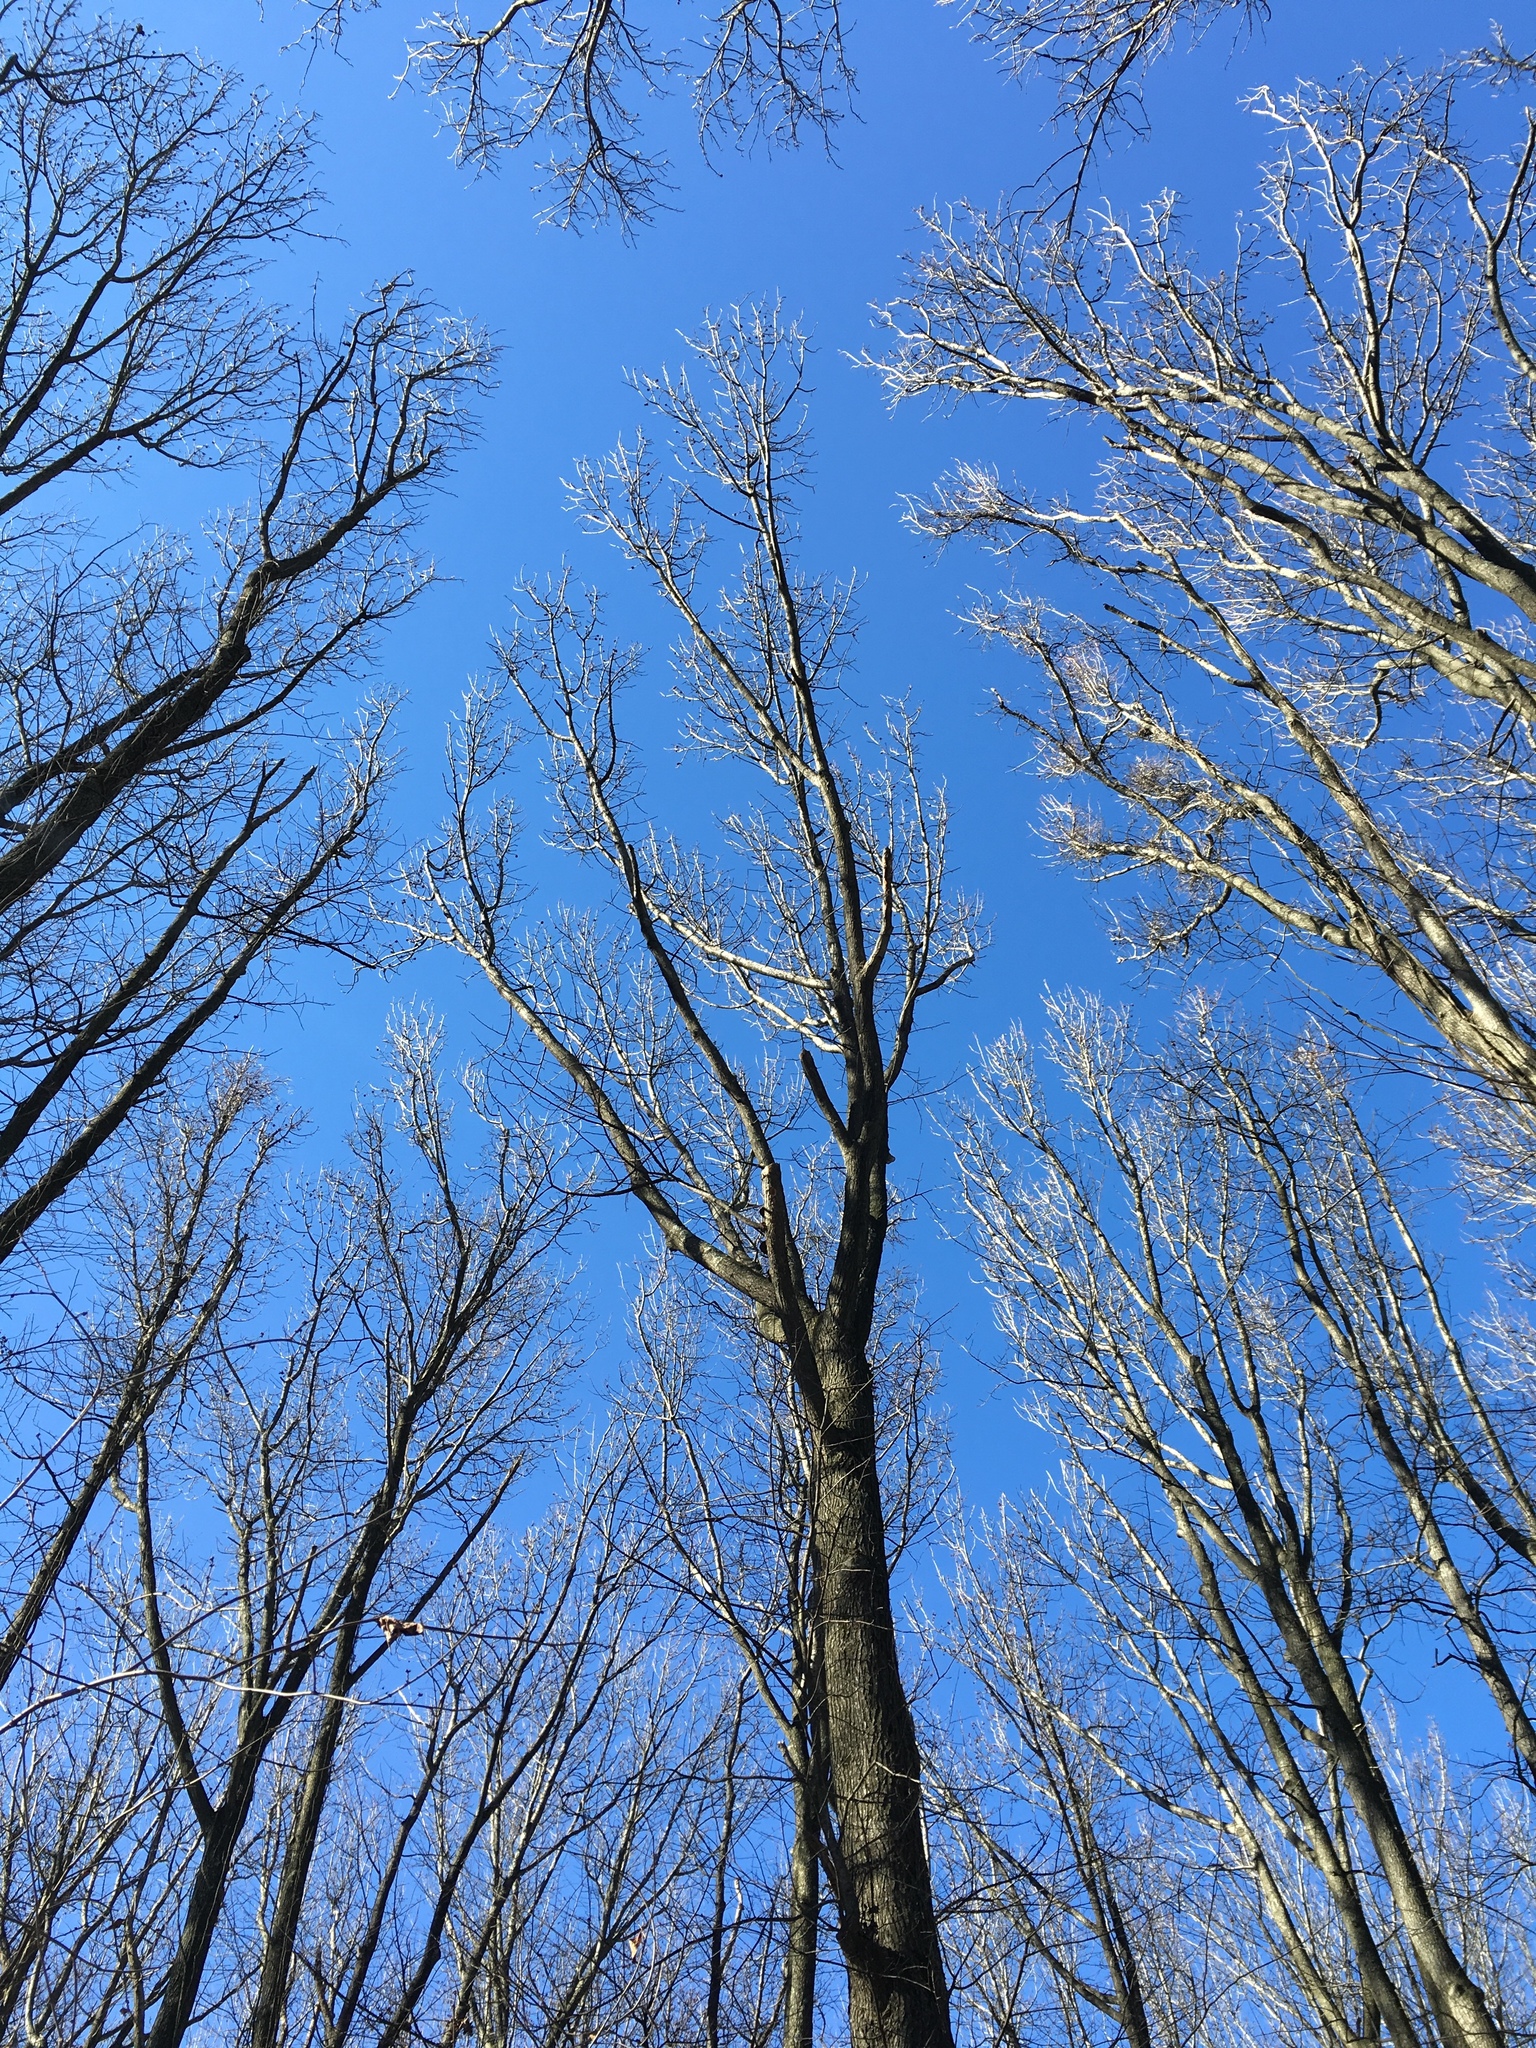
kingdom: Plantae
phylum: Tracheophyta
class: Magnoliopsida
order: Saxifragales
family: Altingiaceae
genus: Liquidambar
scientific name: Liquidambar styraciflua
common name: Sweet gum
